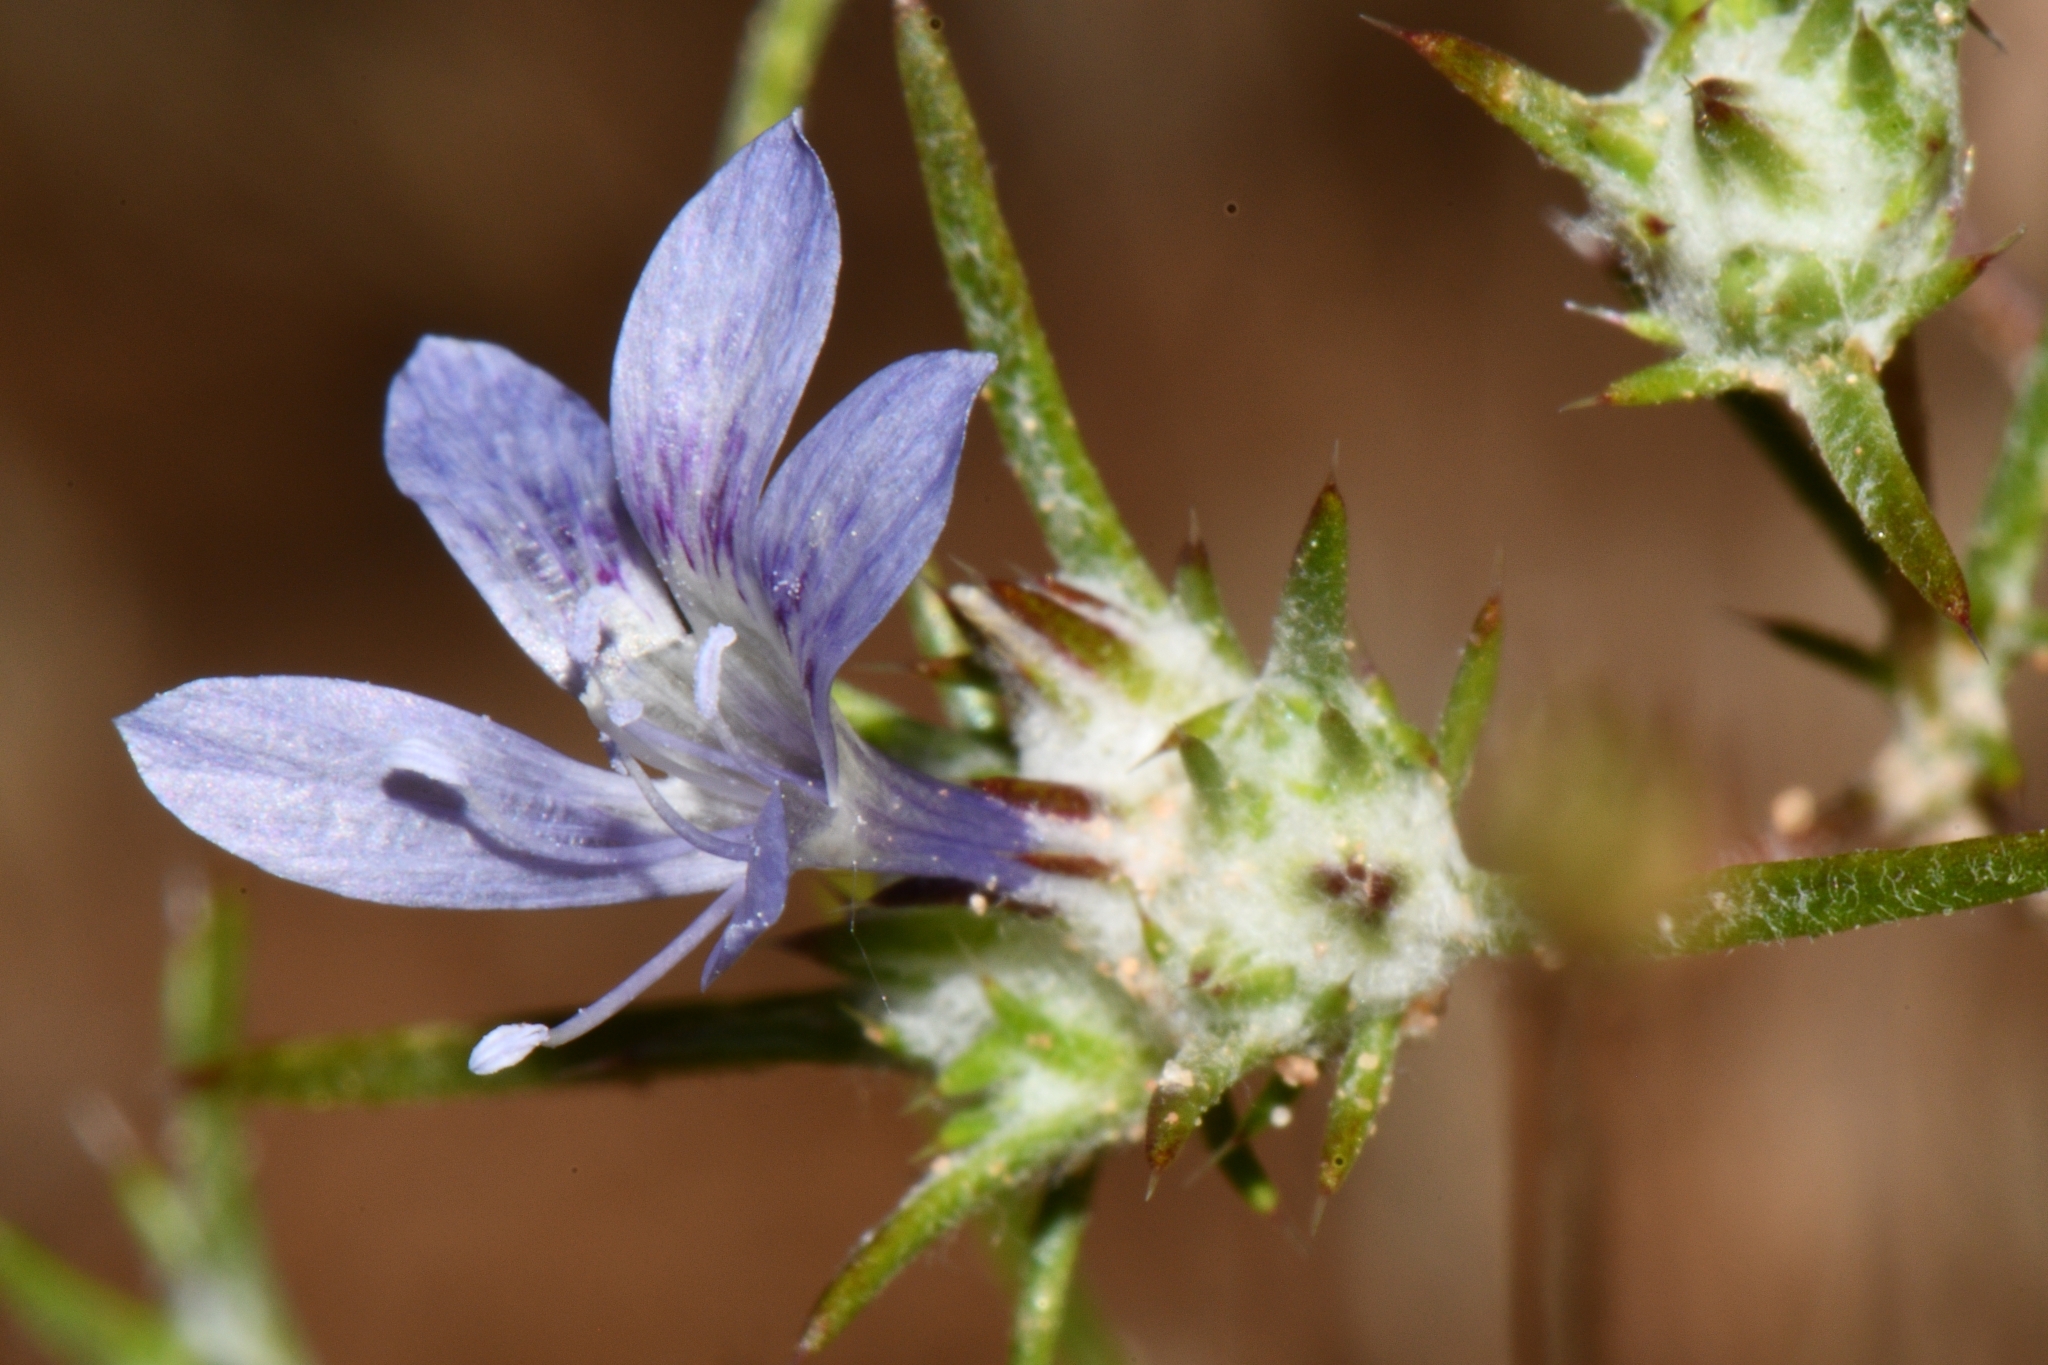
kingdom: Plantae
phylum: Tracheophyta
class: Magnoliopsida
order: Ericales
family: Polemoniaceae
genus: Eriastrum
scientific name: Eriastrum eremicum
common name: Desert eriastrum
